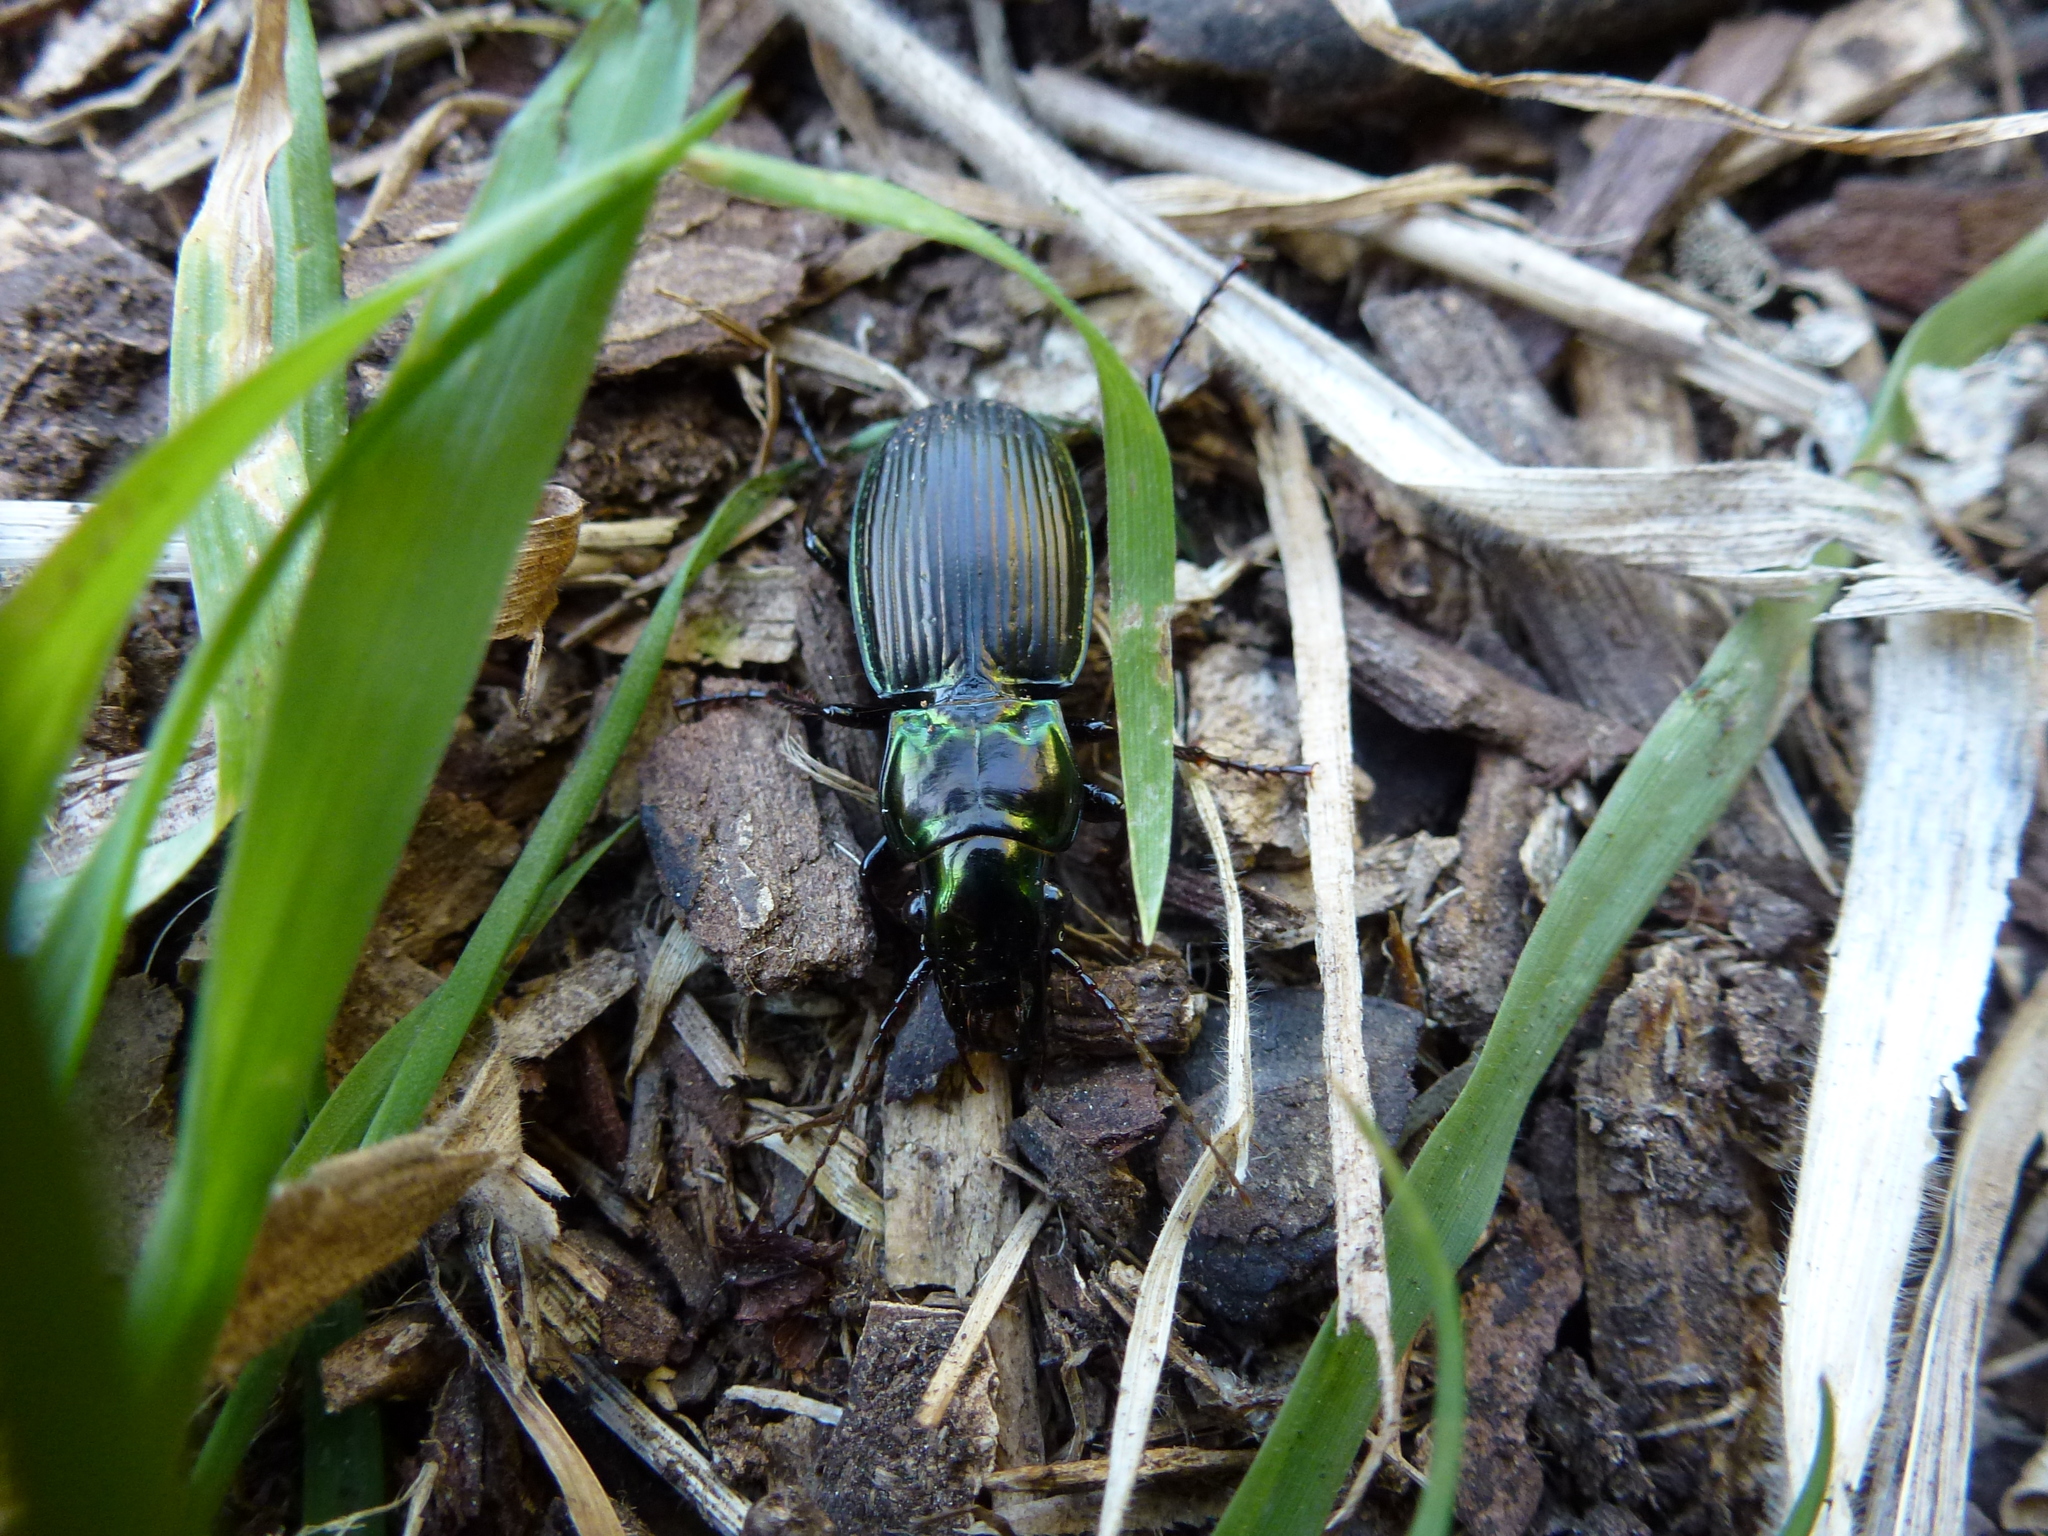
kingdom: Animalia
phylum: Arthropoda
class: Insecta
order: Coleoptera
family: Carabidae
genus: Megadromus
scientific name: Megadromus capito
